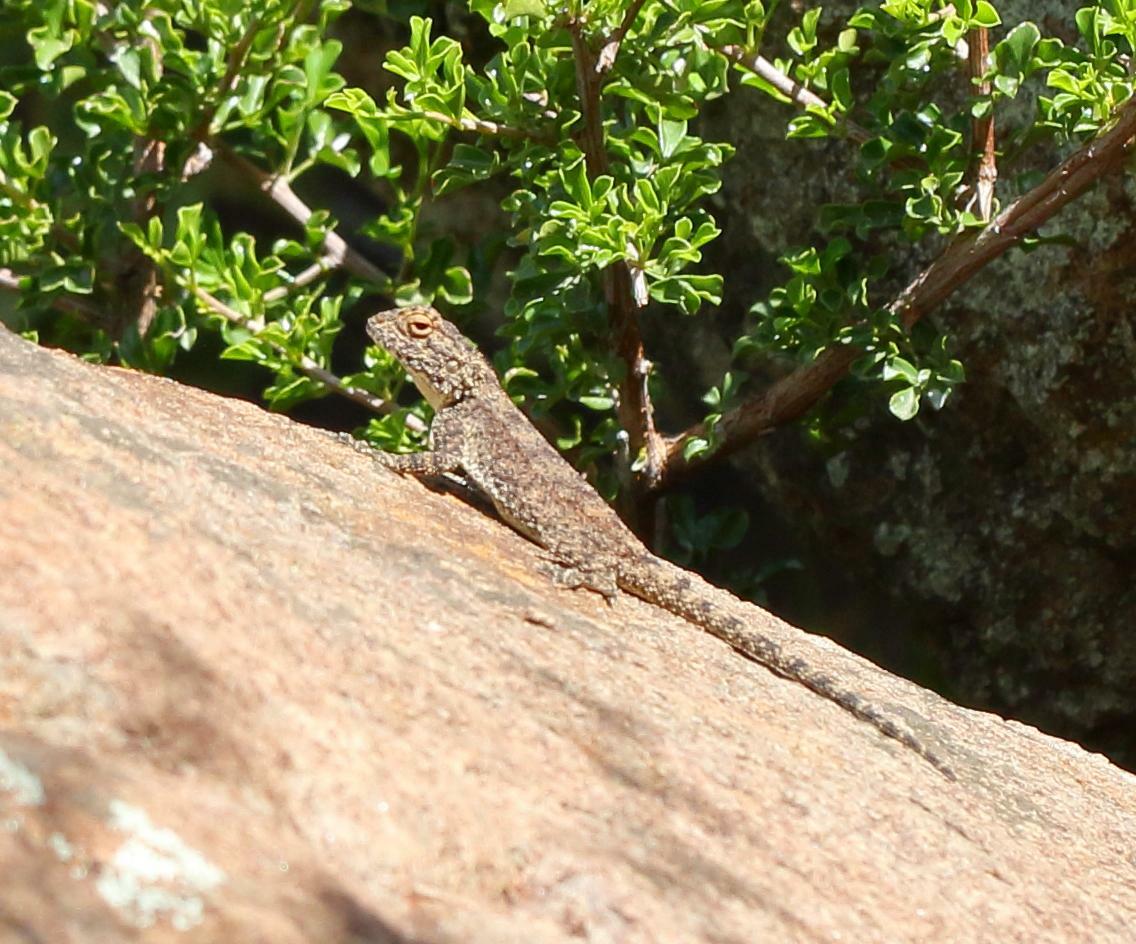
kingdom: Animalia
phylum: Chordata
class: Squamata
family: Agamidae
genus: Agama
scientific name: Agama atra
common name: Southern african rock agama
